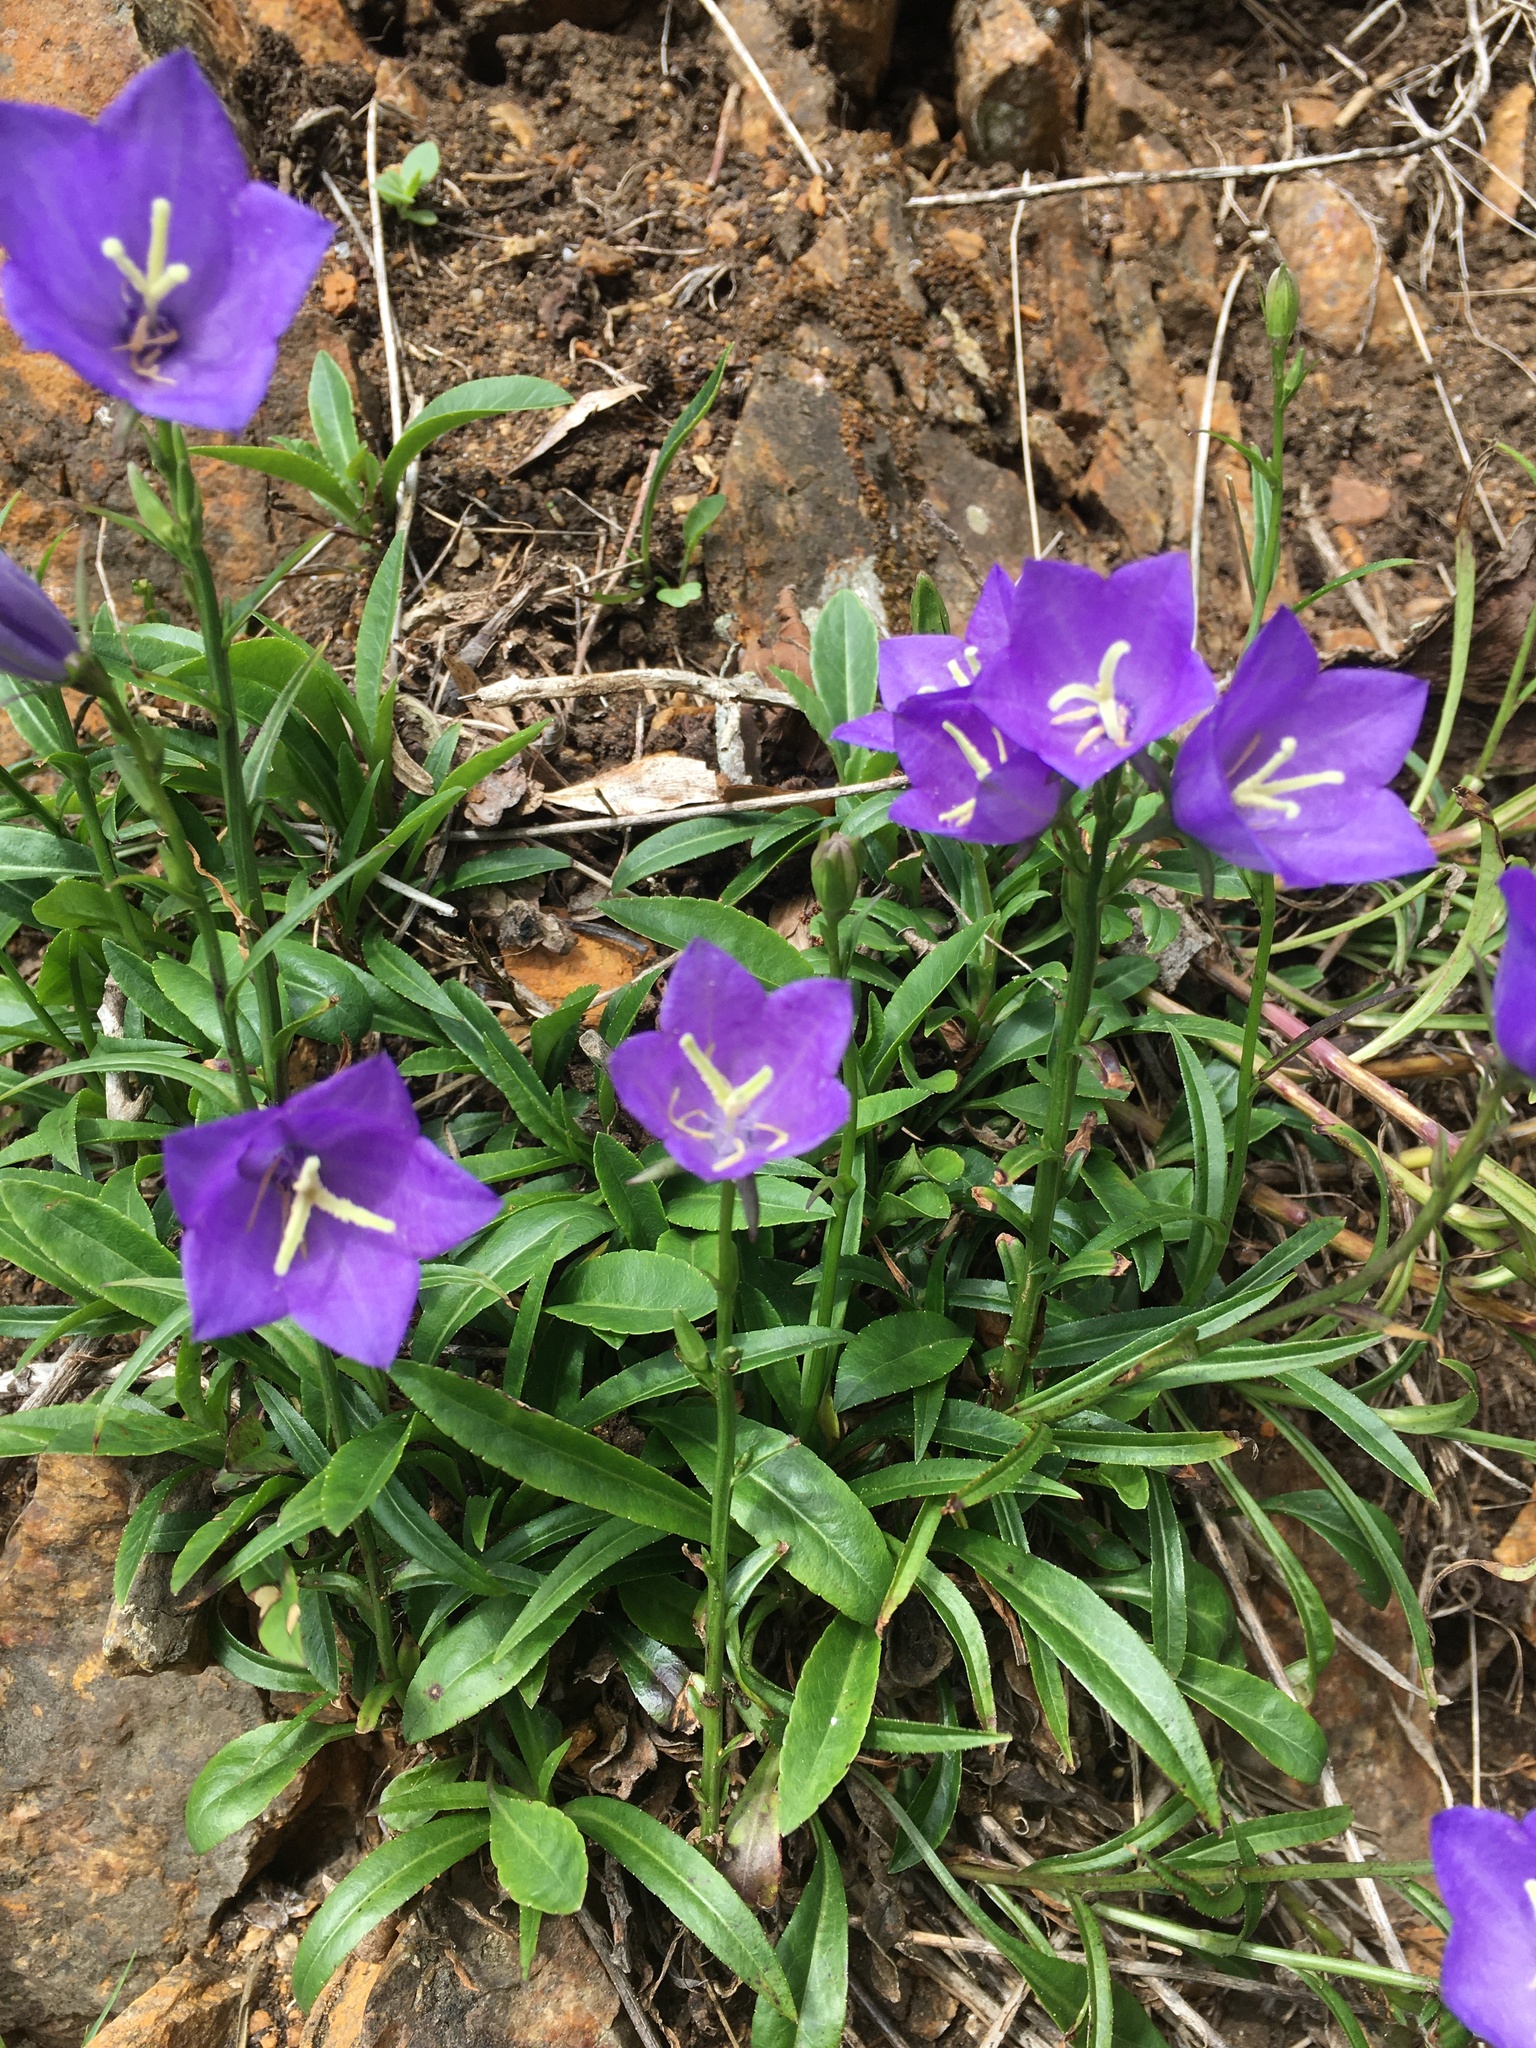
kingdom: Plantae
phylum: Tracheophyta
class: Magnoliopsida
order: Asterales
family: Campanulaceae
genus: Campanula
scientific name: Campanula persicifolia
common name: Peach-leaved bellflower
